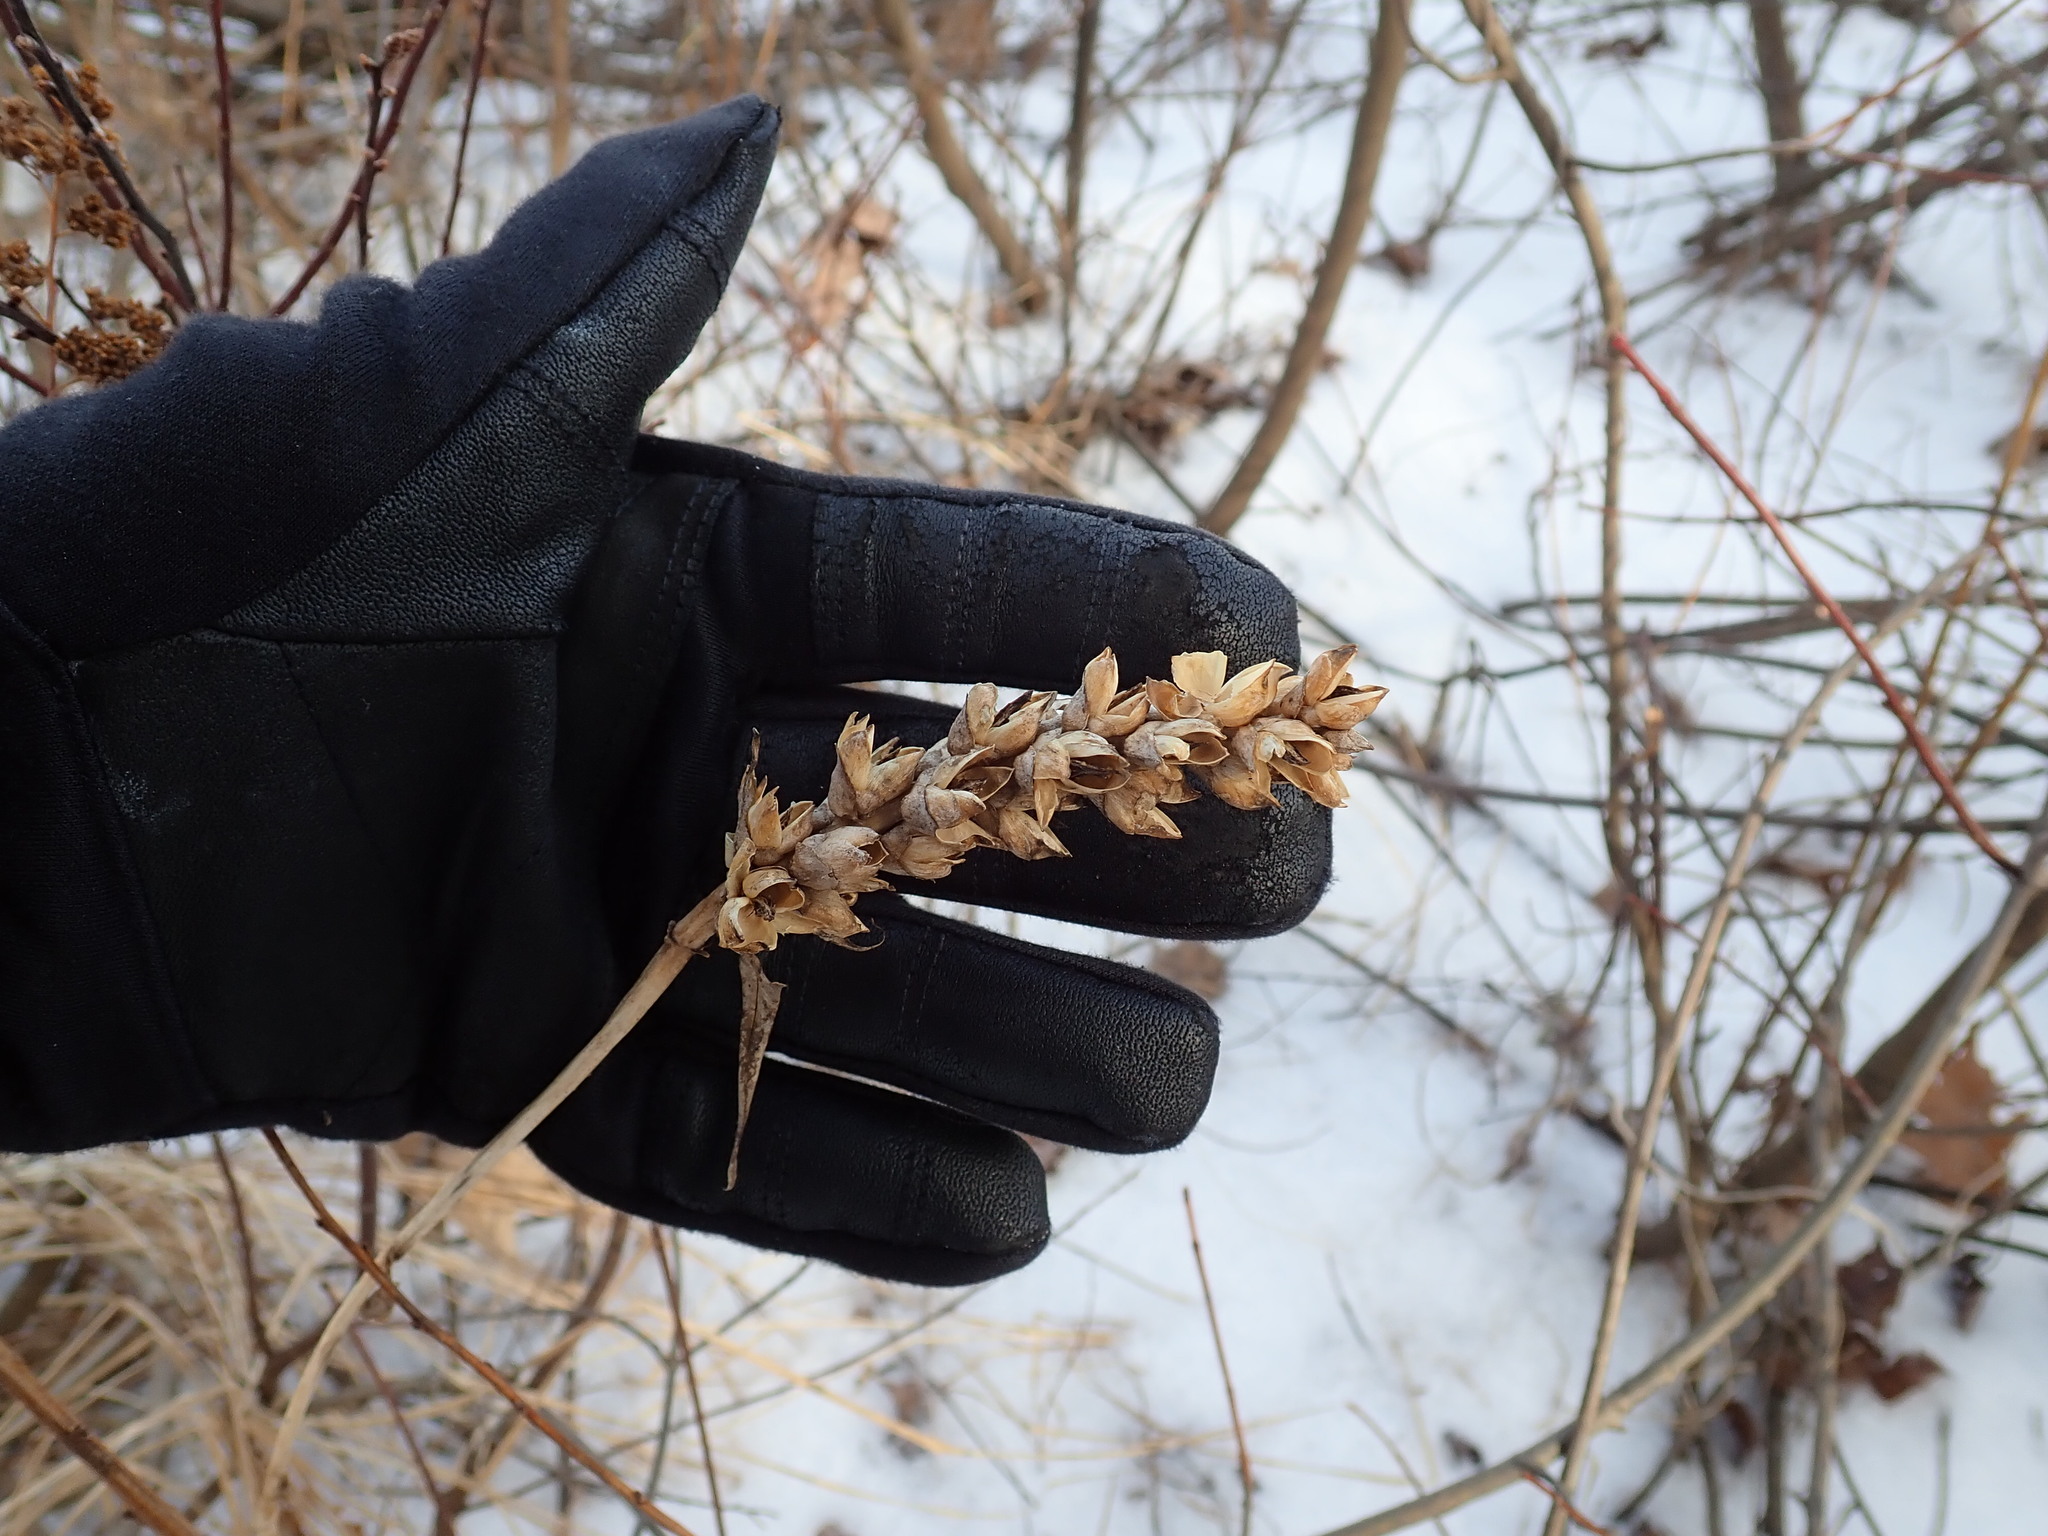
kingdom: Plantae
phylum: Tracheophyta
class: Magnoliopsida
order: Lamiales
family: Plantaginaceae
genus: Chelone
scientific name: Chelone glabra
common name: Snakehead
